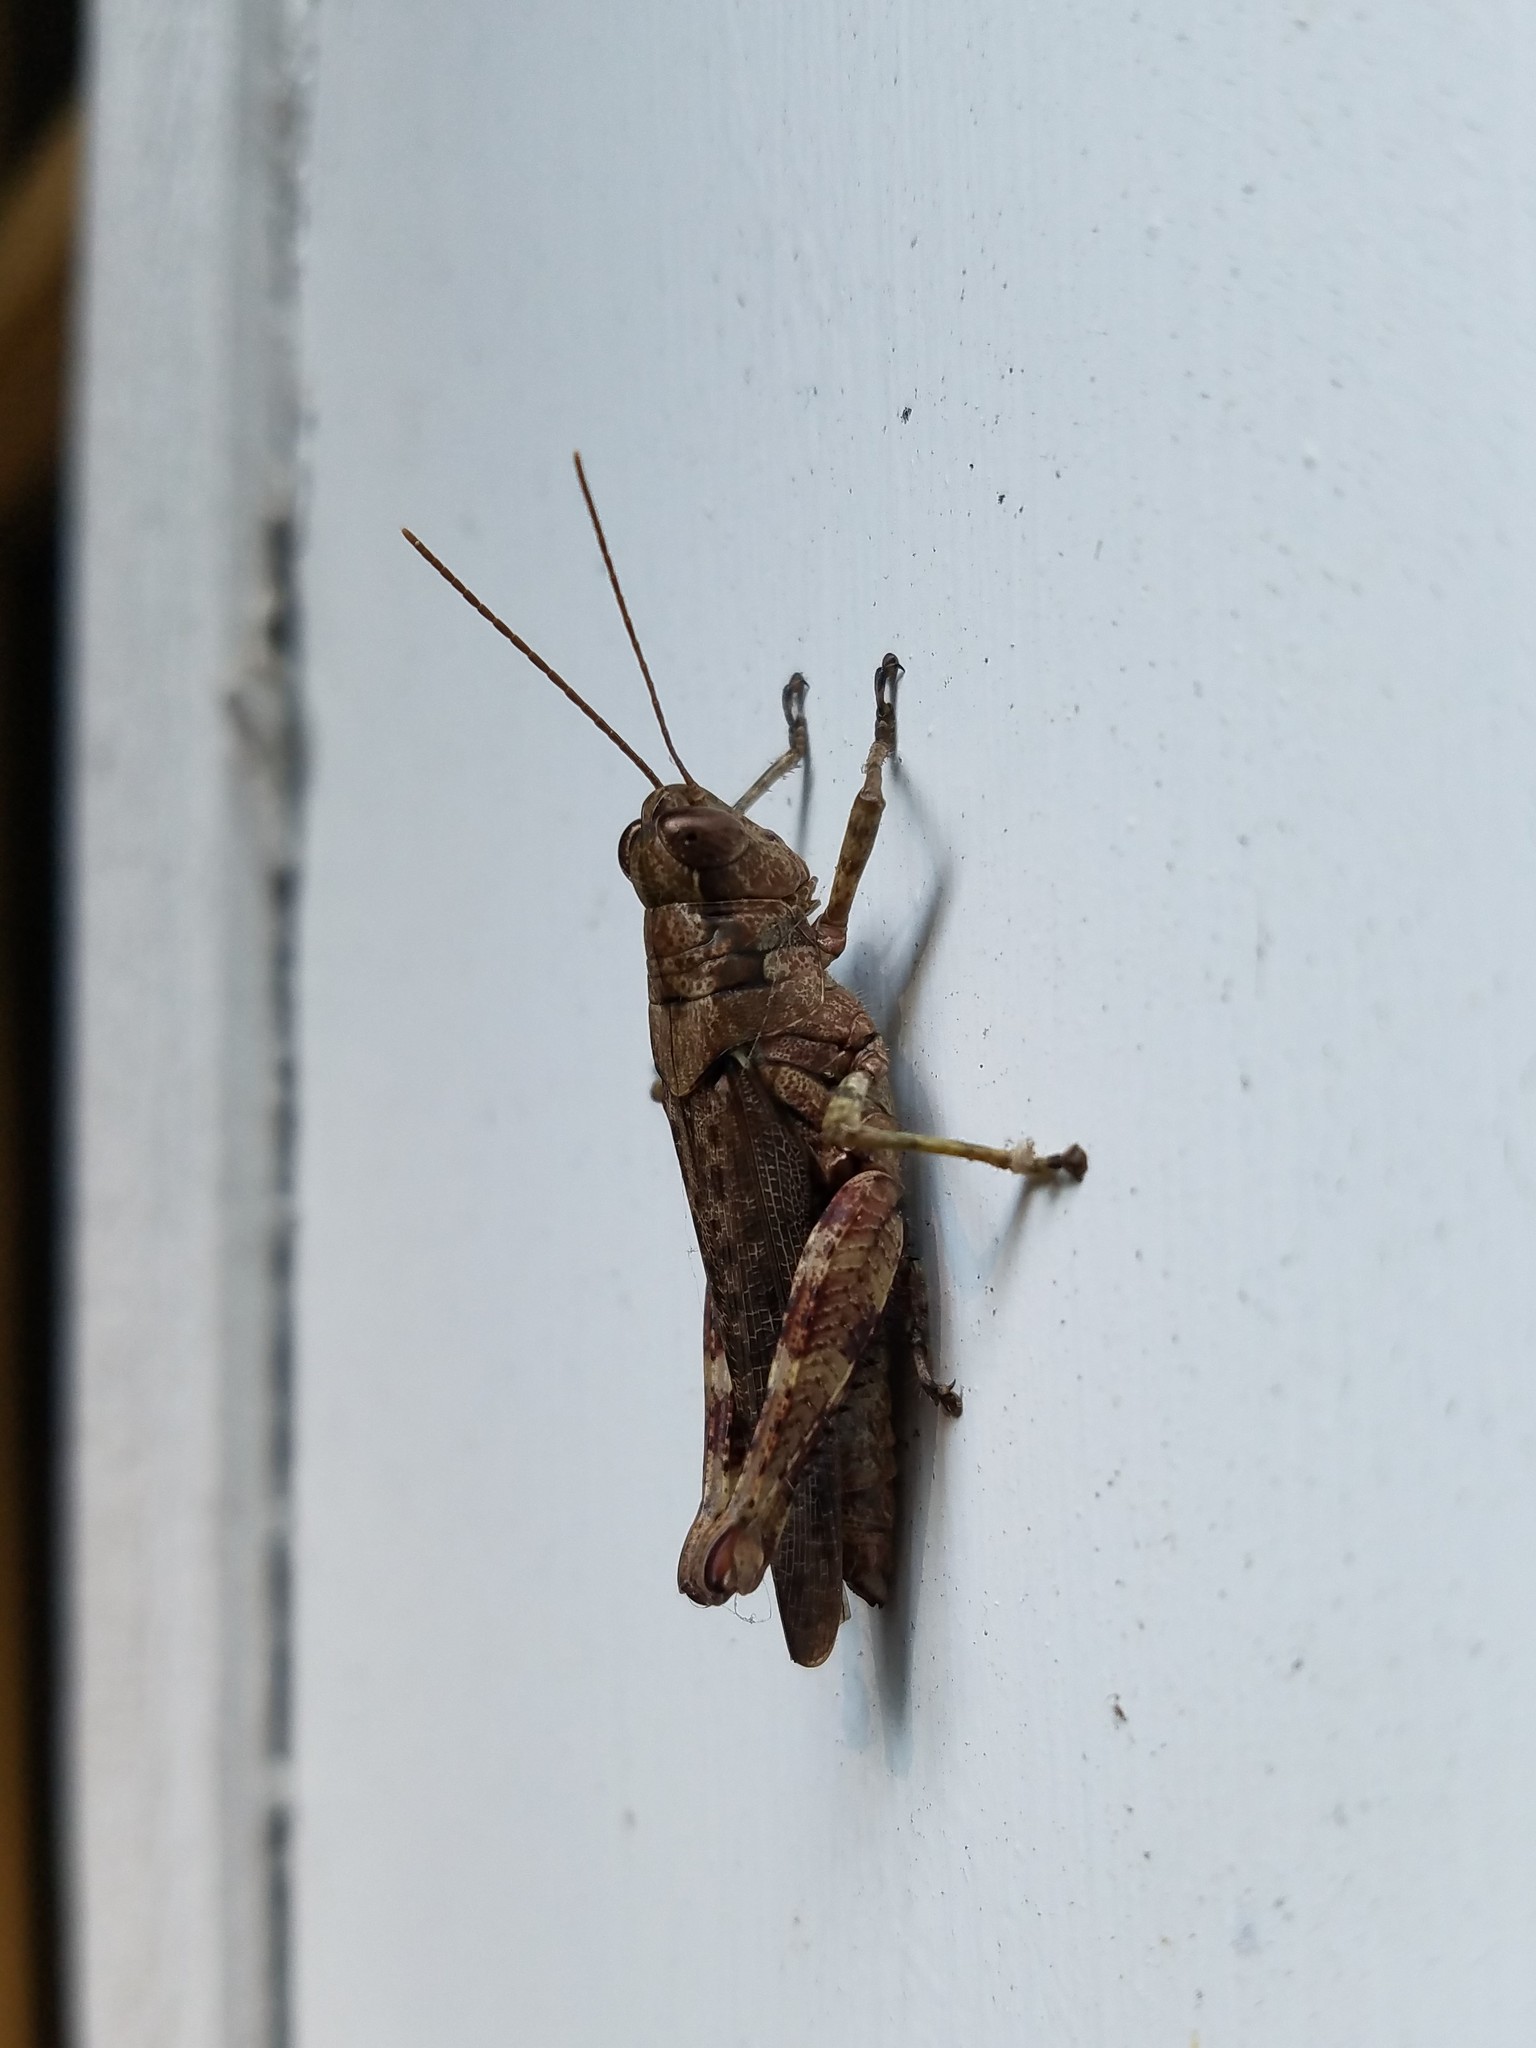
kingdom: Animalia
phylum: Arthropoda
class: Insecta
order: Orthoptera
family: Acrididae
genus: Melanoplus
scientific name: Melanoplus punctulatus
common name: Pine-tree spur-throat grasshopper
